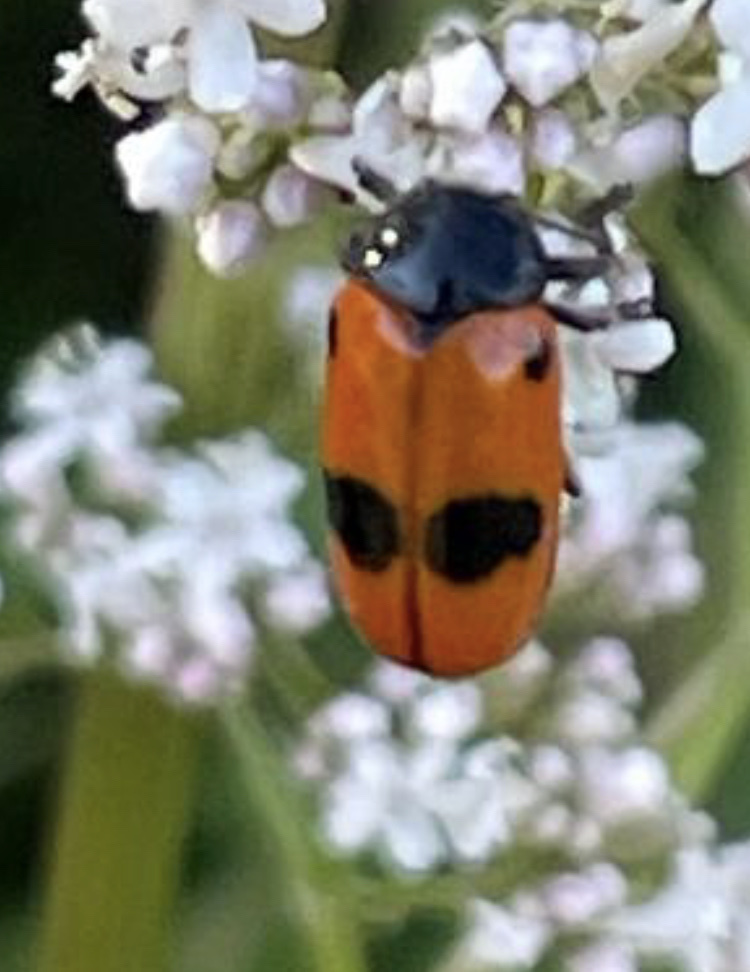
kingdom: Animalia
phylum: Arthropoda
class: Insecta
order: Coleoptera
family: Chrysomelidae
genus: Clytra
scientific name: Clytra laeviuscula
